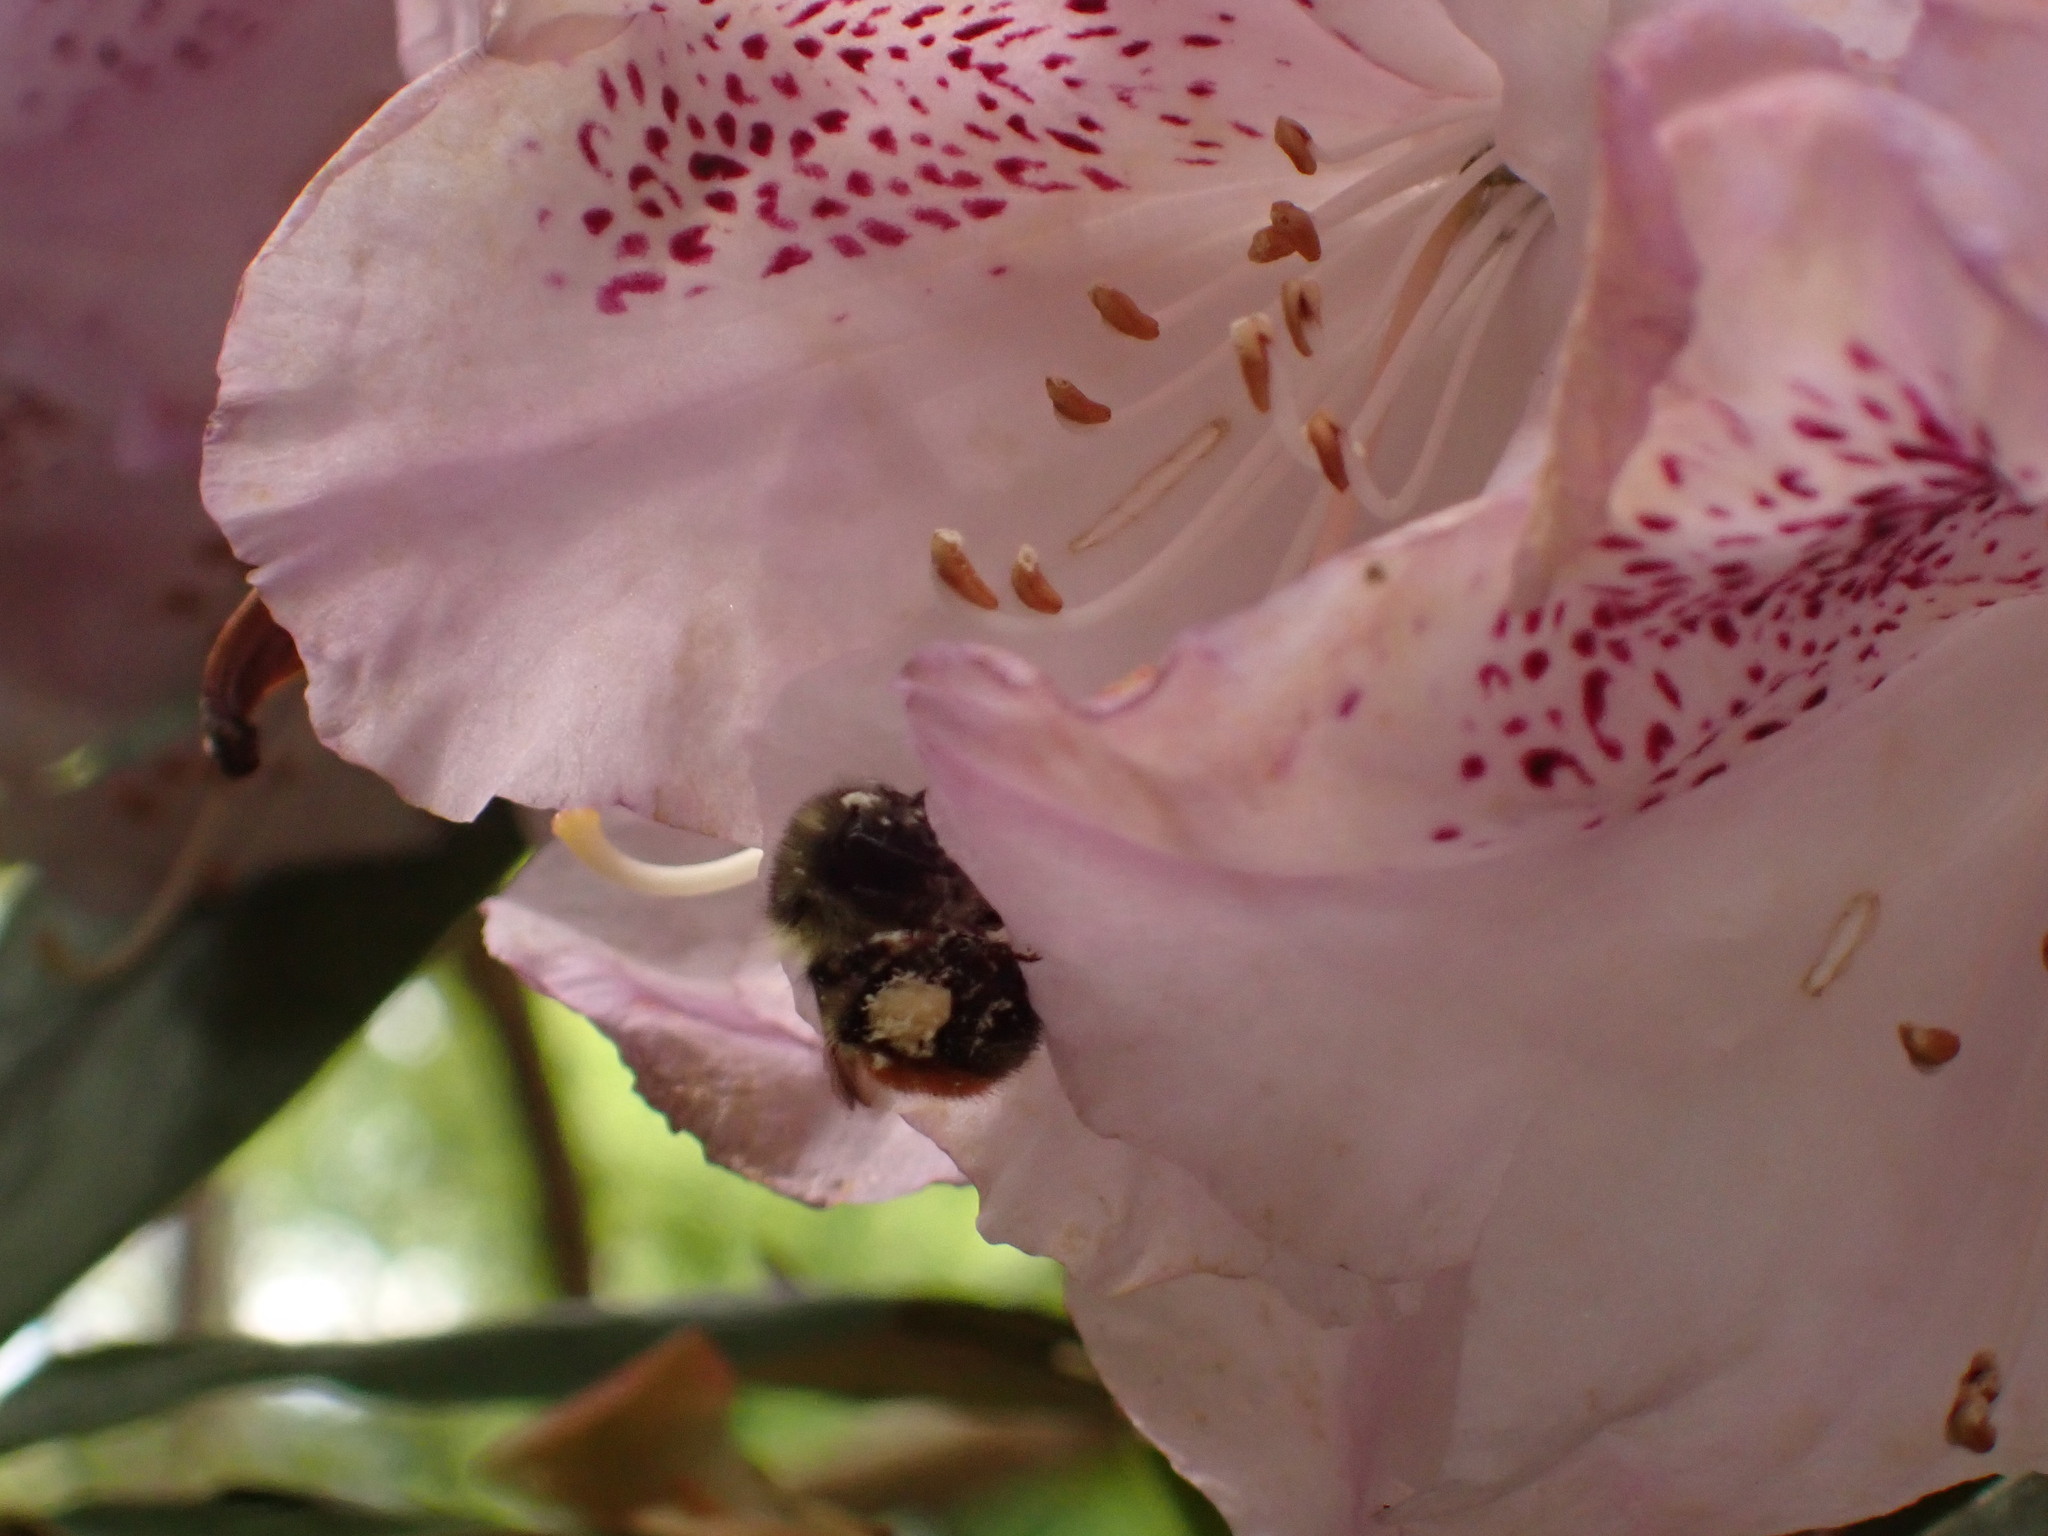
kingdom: Animalia
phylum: Arthropoda
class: Insecta
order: Hymenoptera
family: Apidae
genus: Bombus
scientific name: Bombus melanopygus
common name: Black tail bumble bee
